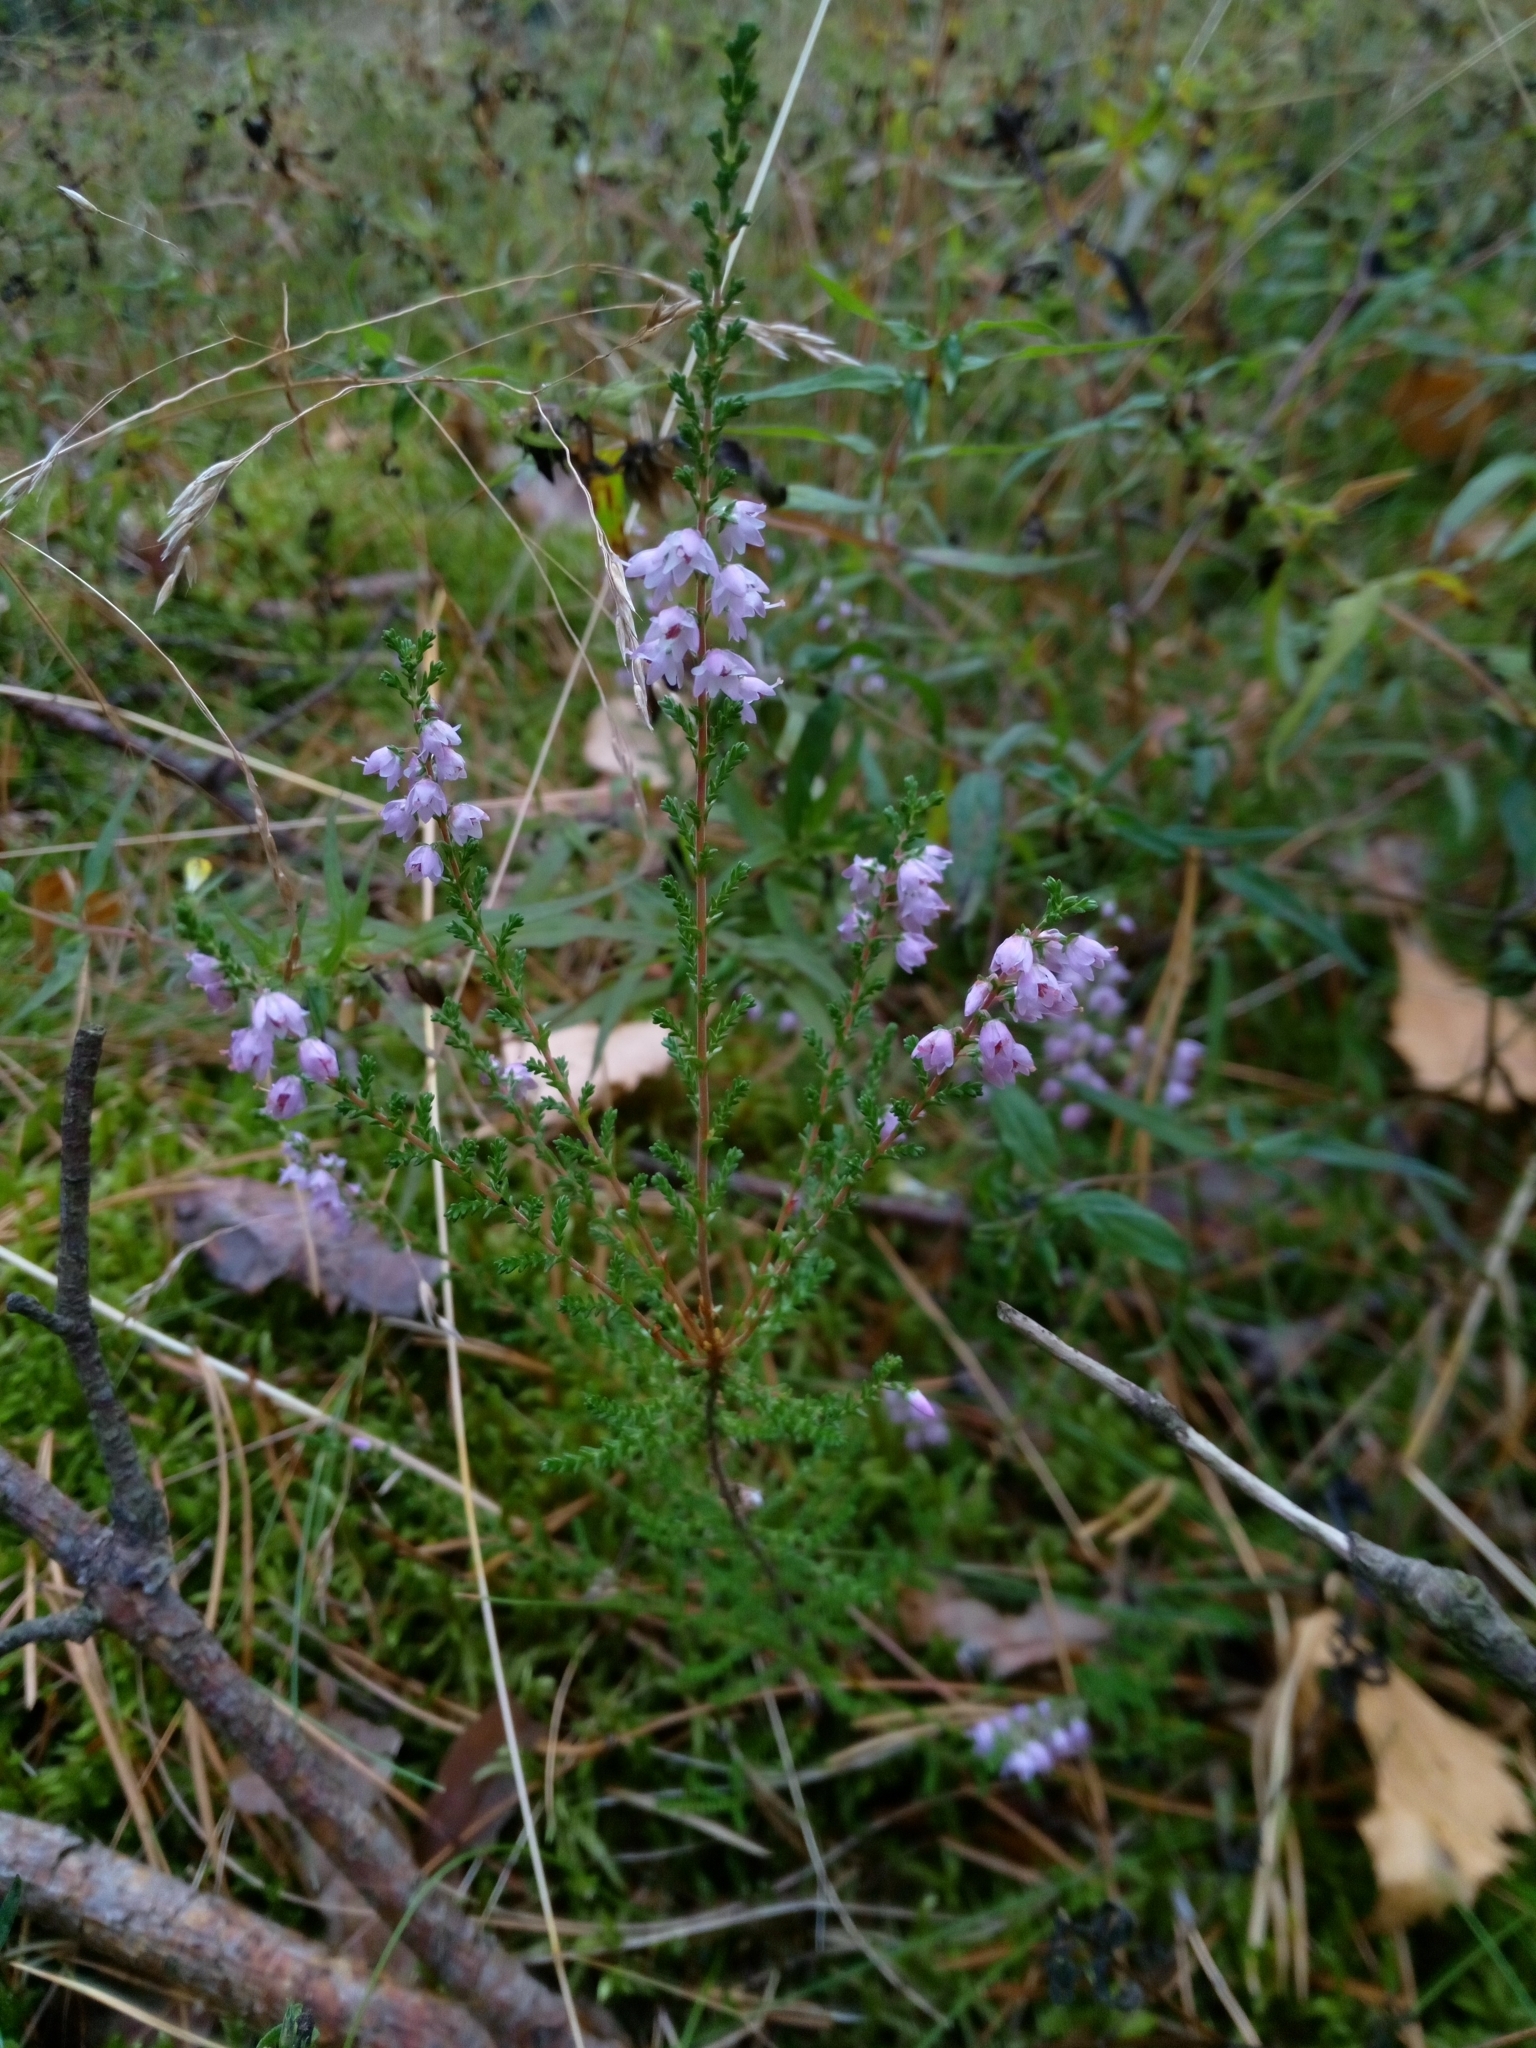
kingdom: Plantae
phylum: Tracheophyta
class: Magnoliopsida
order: Ericales
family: Ericaceae
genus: Calluna
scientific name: Calluna vulgaris
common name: Heather
